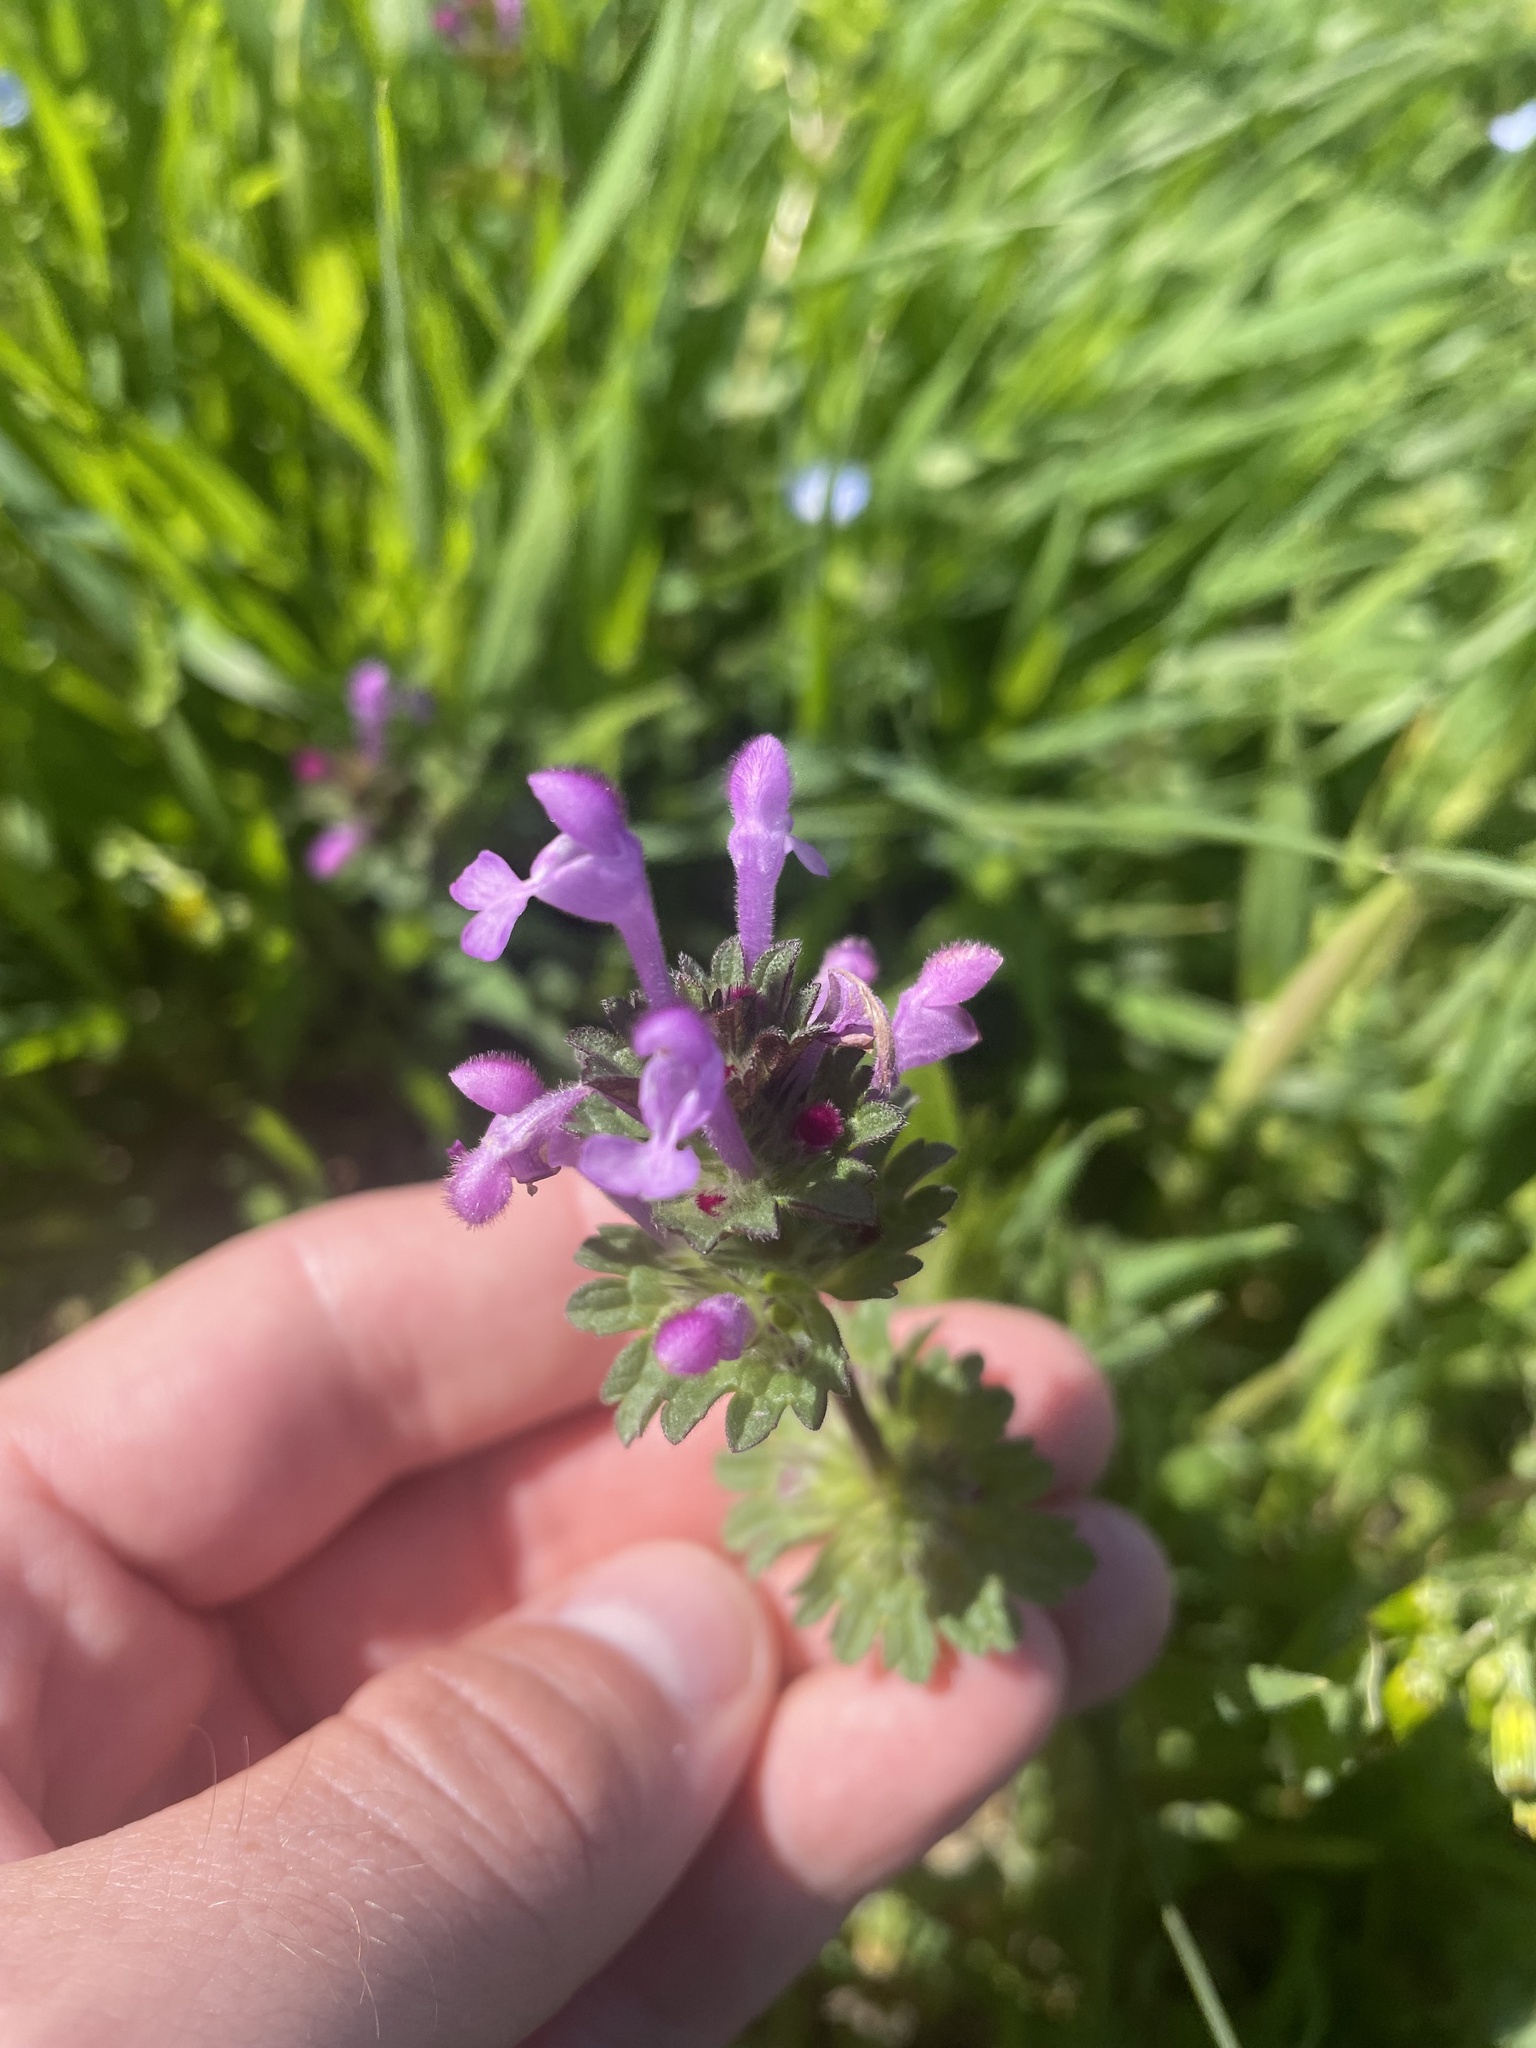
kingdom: Plantae
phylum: Tracheophyta
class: Magnoliopsida
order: Lamiales
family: Lamiaceae
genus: Lamium
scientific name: Lamium amplexicaule
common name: Henbit dead-nettle
